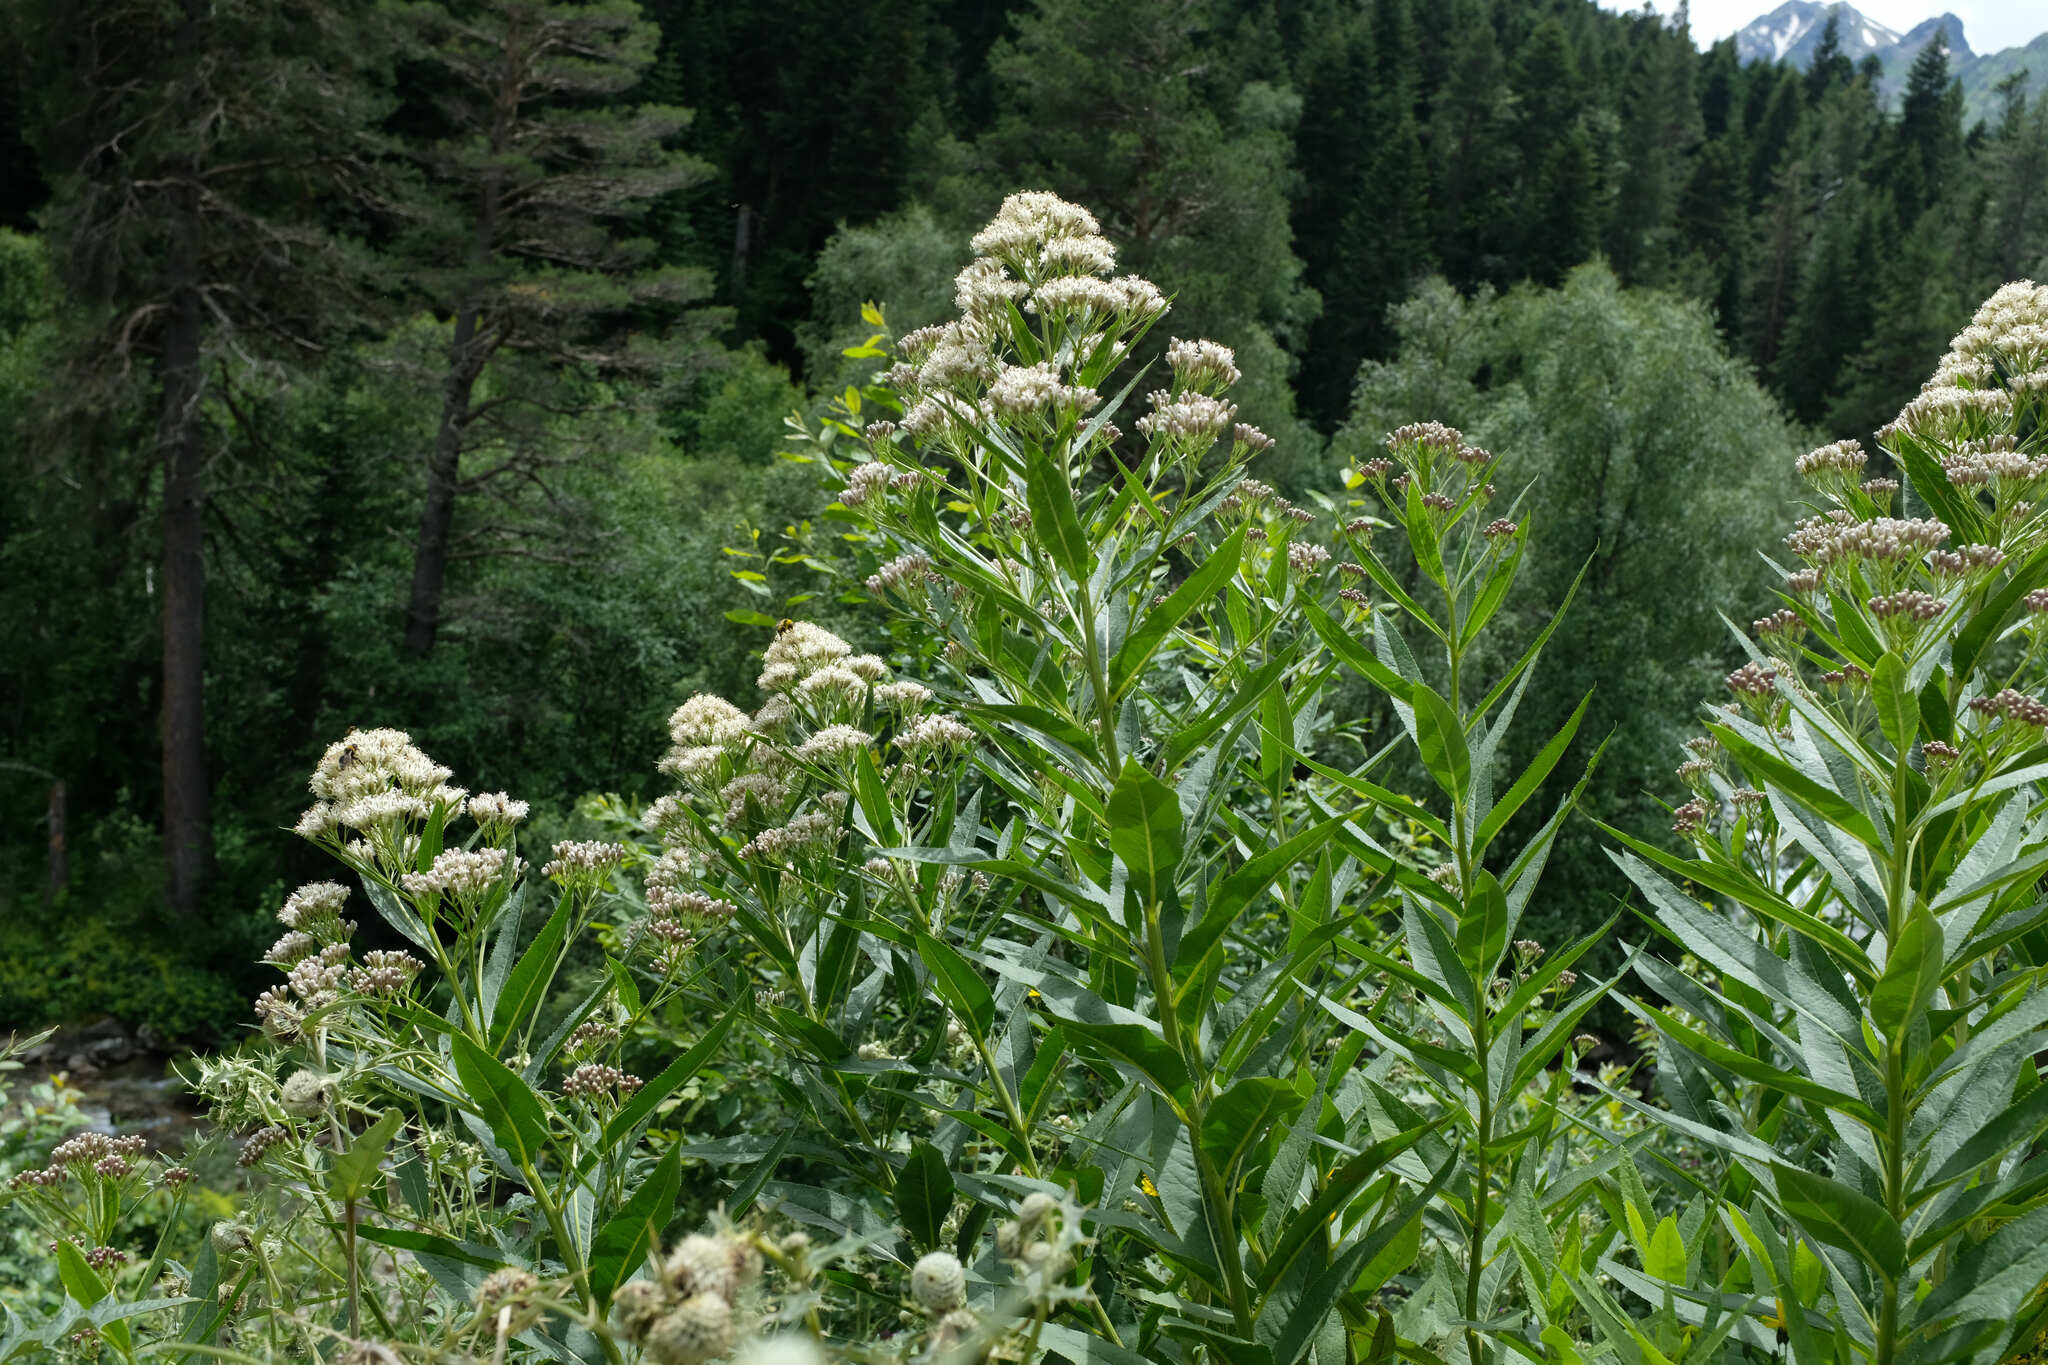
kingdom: Plantae
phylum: Tracheophyta
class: Magnoliopsida
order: Asterales
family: Asteraceae
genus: Pojarkovia
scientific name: Pojarkovia pojarkovae
